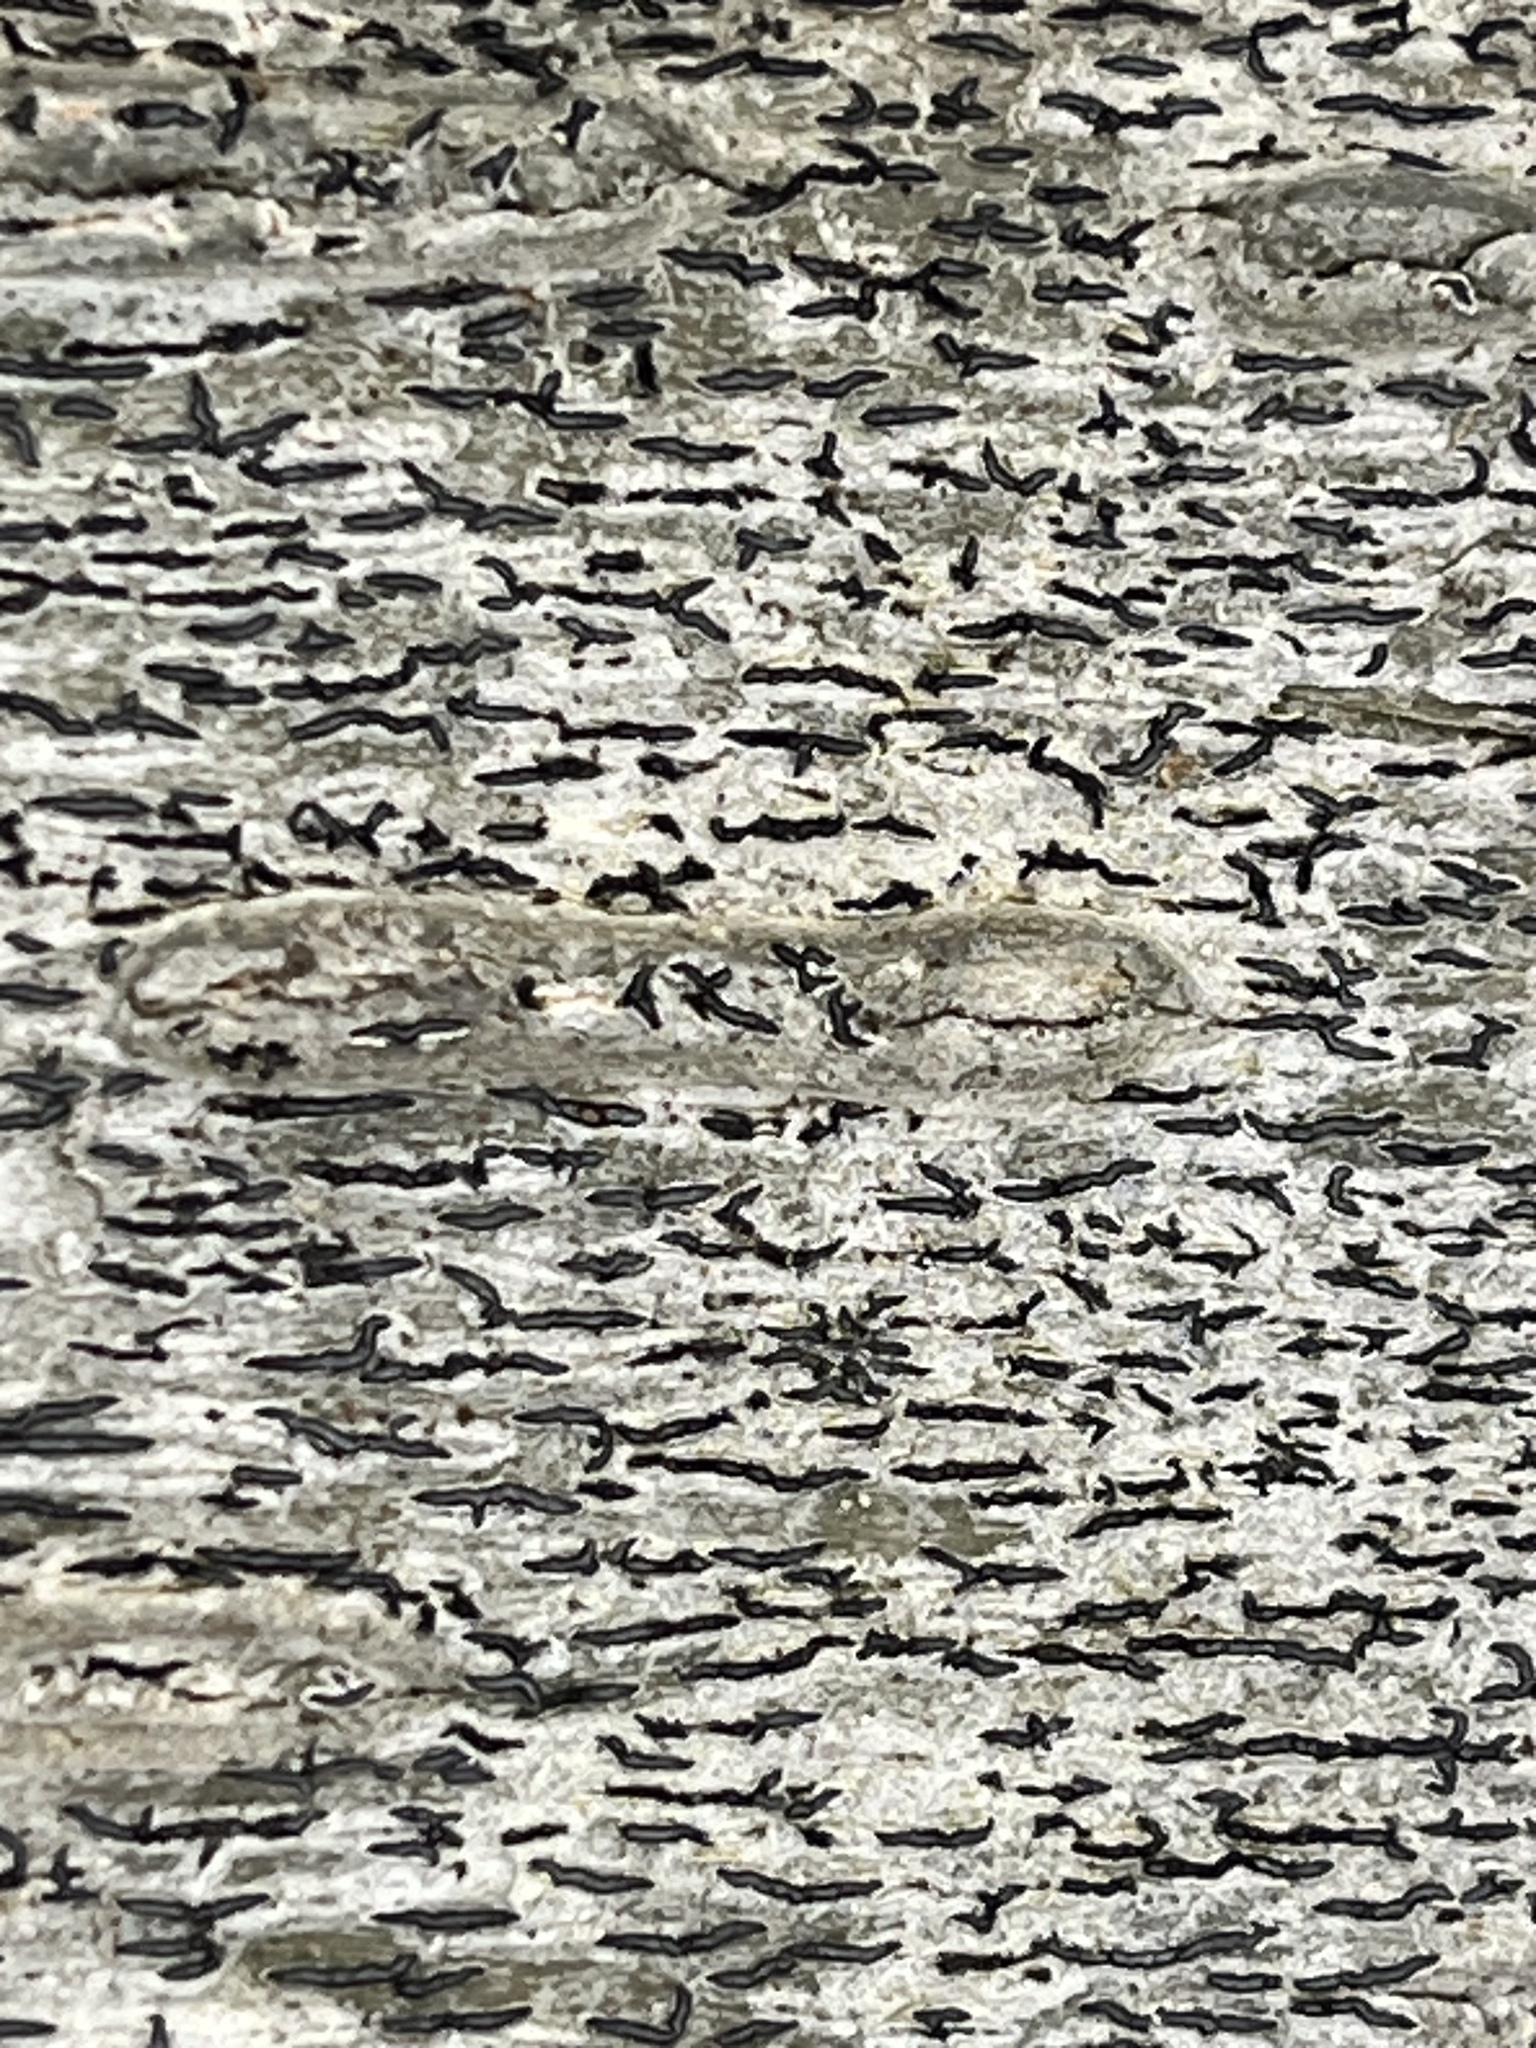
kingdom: Fungi
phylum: Ascomycota
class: Lecanoromycetes
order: Ostropales
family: Graphidaceae
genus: Graphis
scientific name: Graphis scripta
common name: Script lichen
